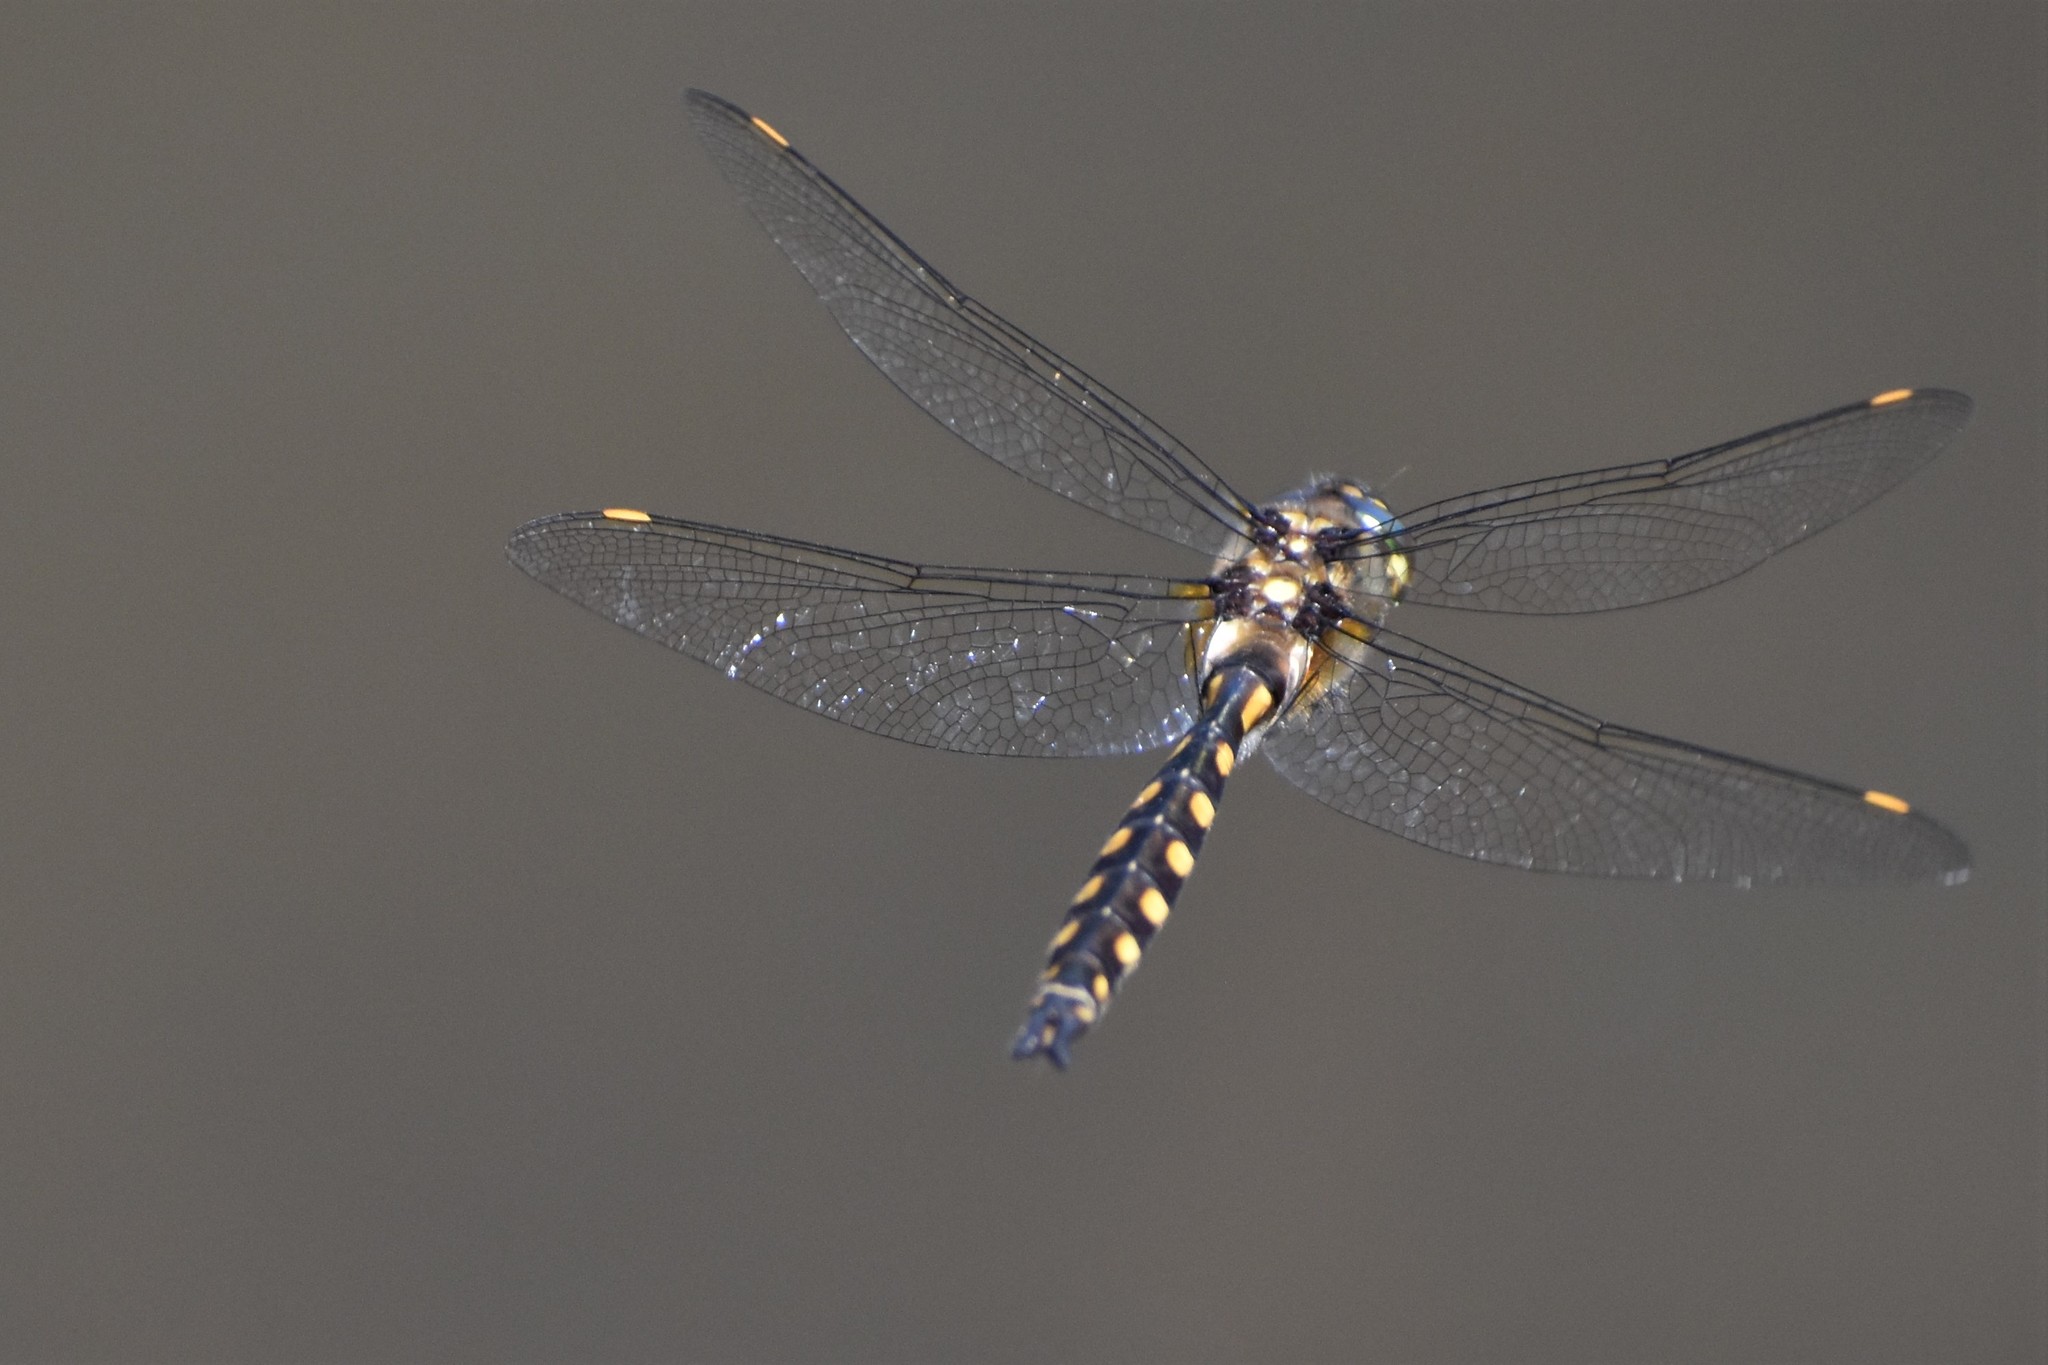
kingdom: Animalia
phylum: Arthropoda
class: Insecta
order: Odonata
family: Corduliidae
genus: Procordulia
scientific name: Procordulia grayi
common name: Yellow spotted dragonfly
